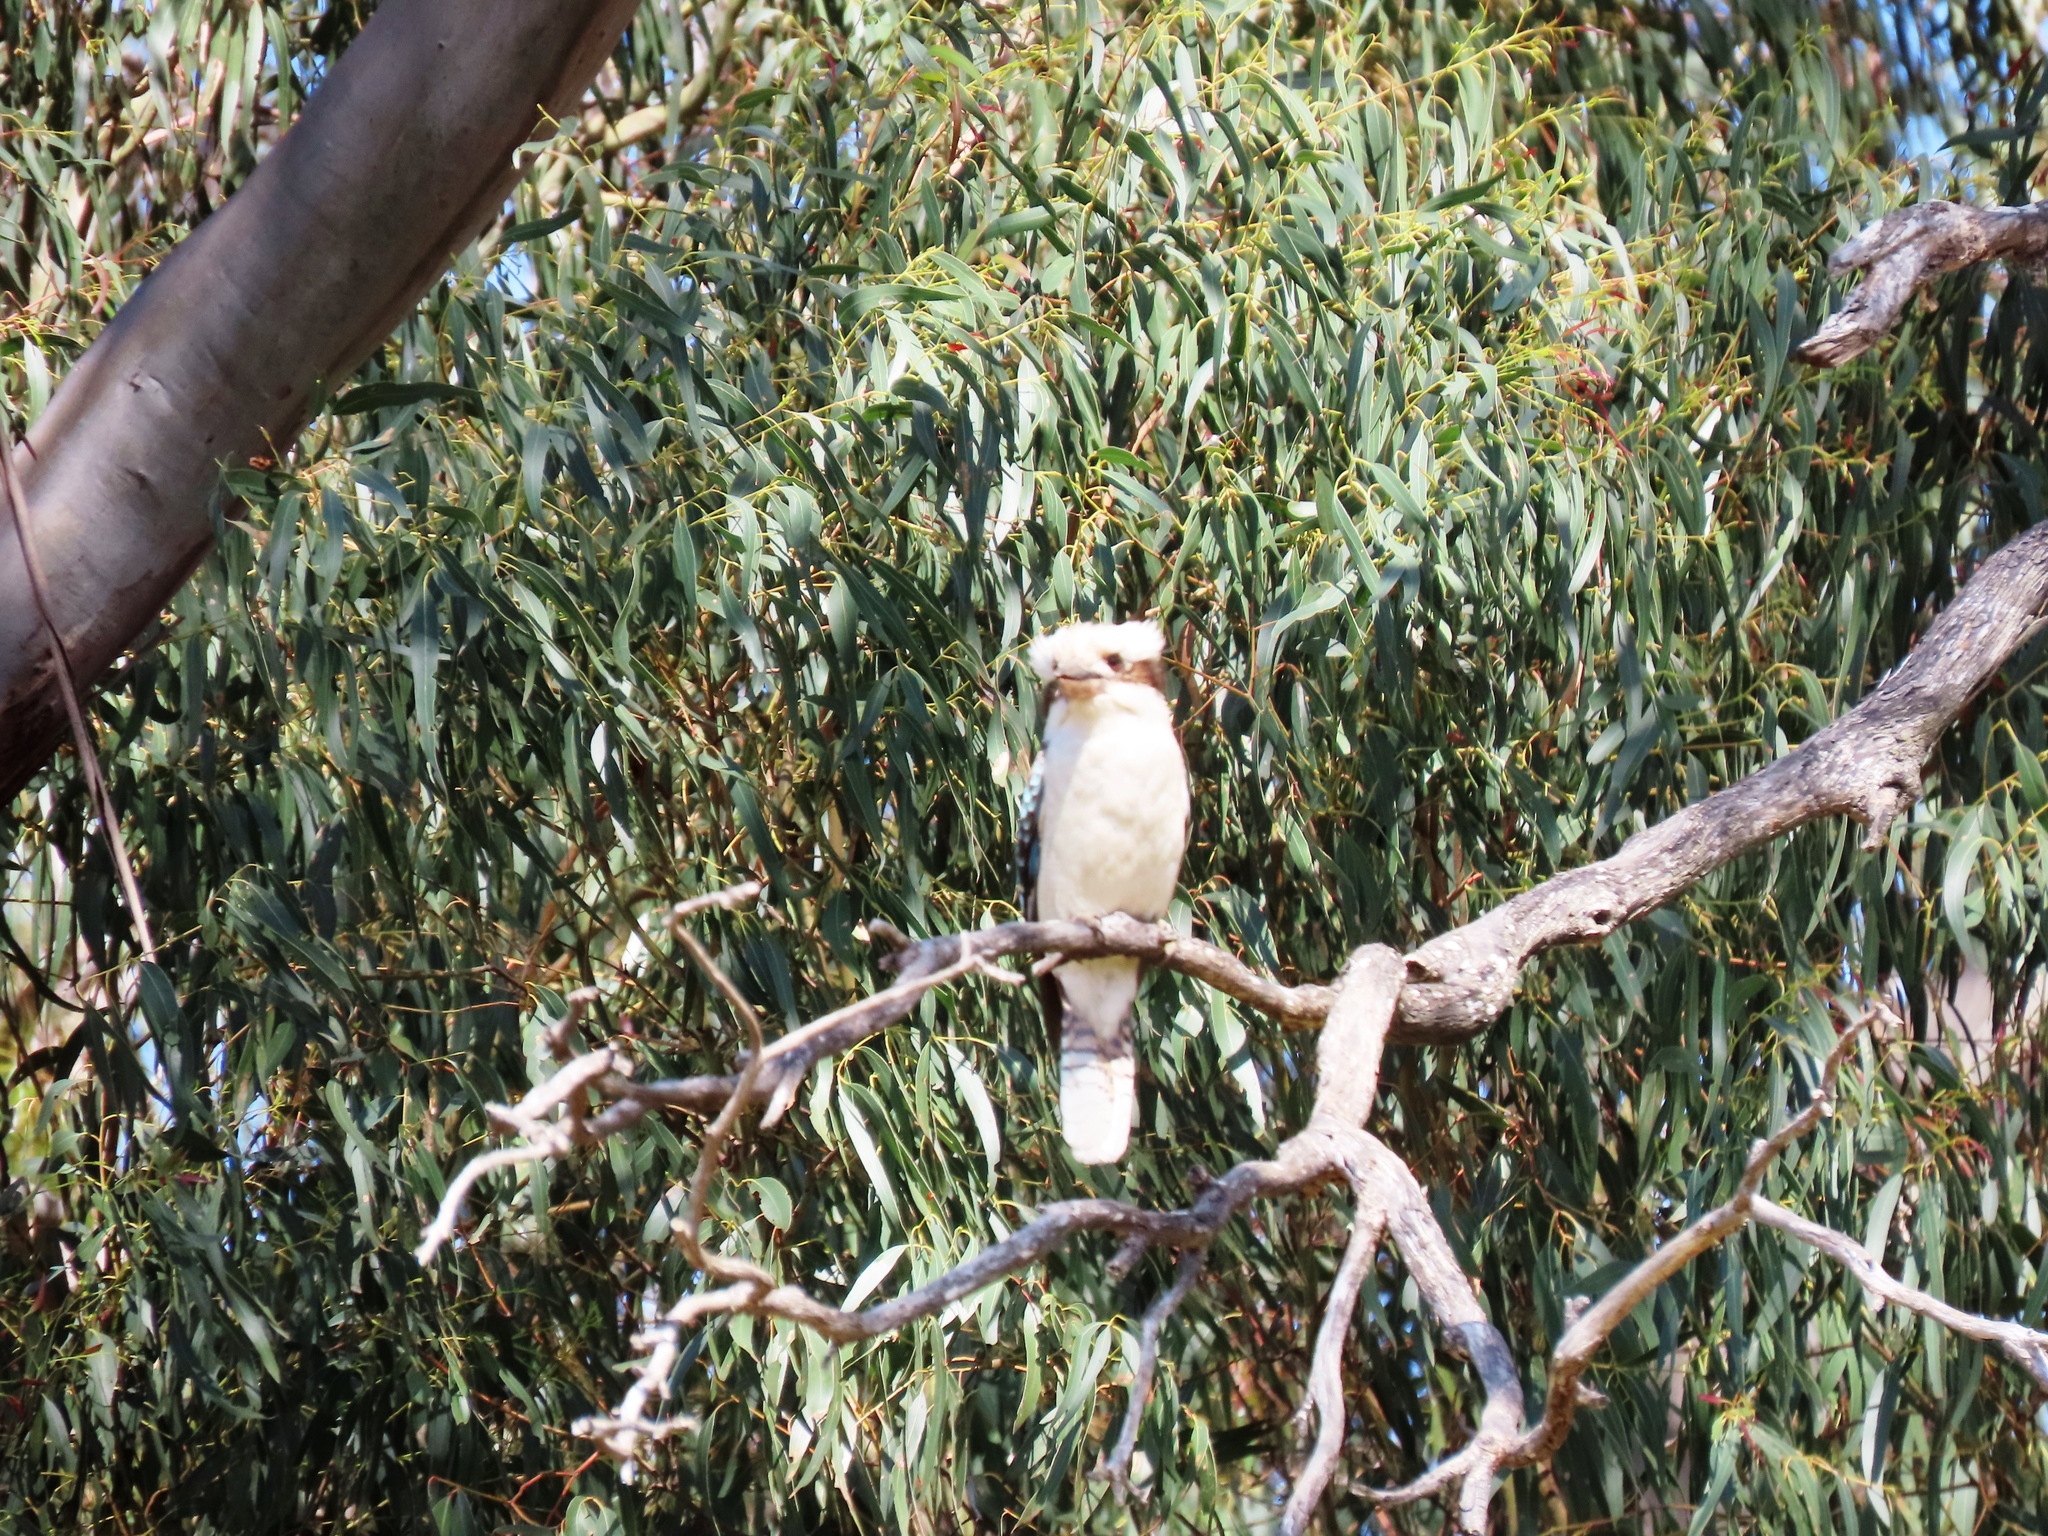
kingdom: Animalia
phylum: Chordata
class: Aves
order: Coraciiformes
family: Alcedinidae
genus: Dacelo
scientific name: Dacelo novaeguineae
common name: Laughing kookaburra
